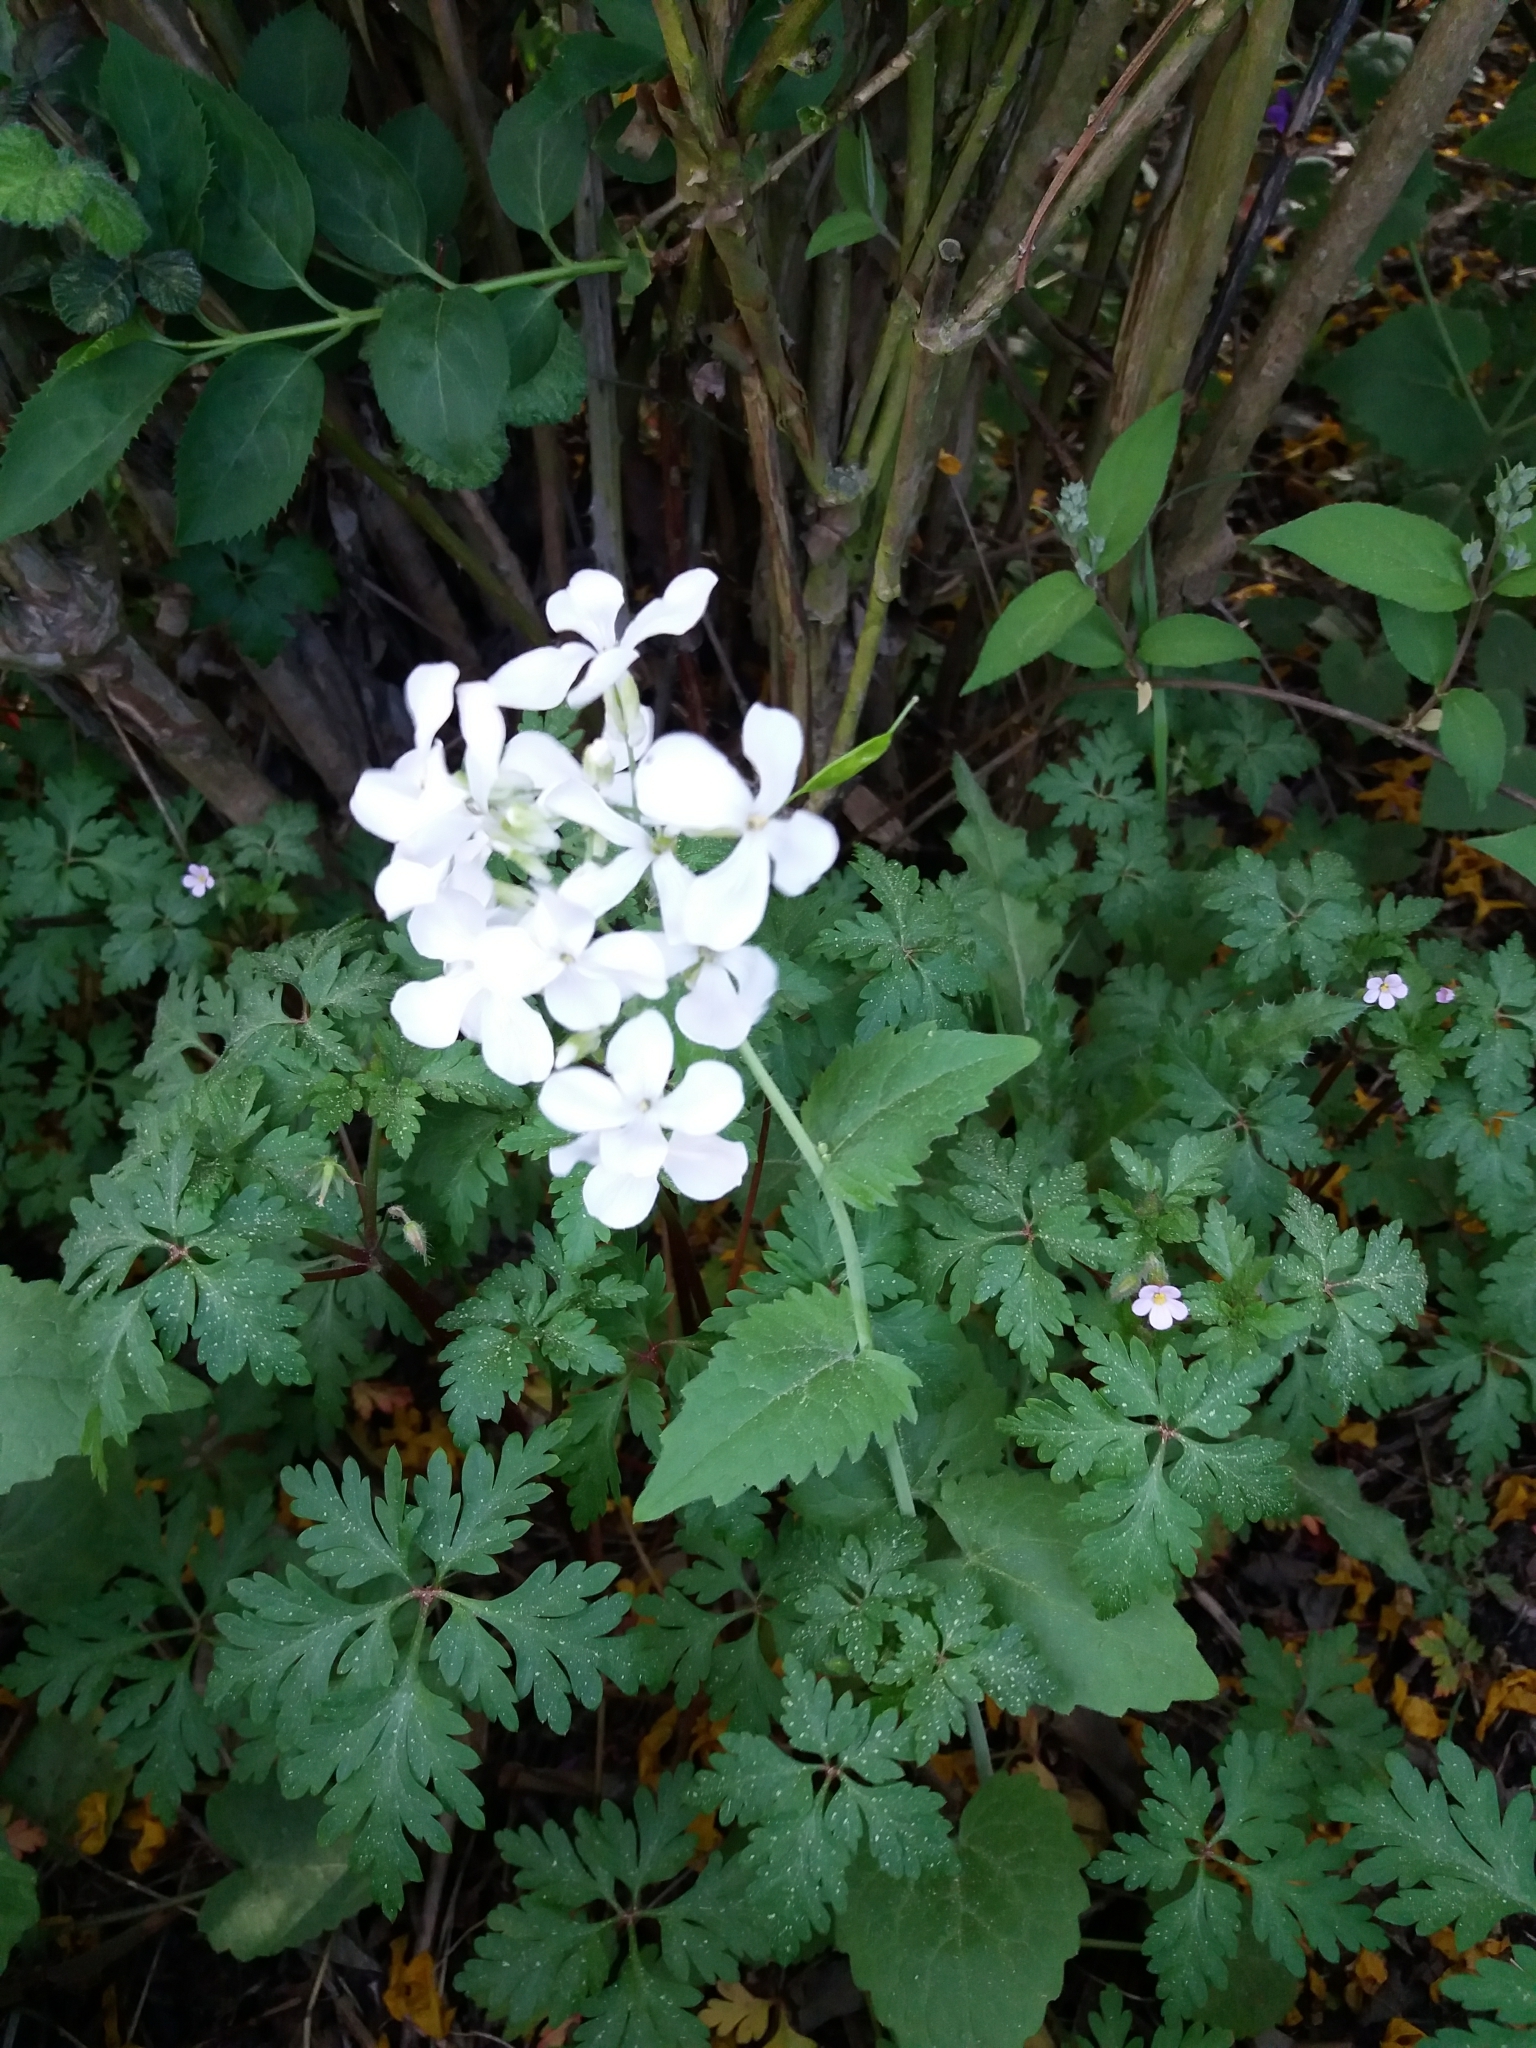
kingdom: Plantae
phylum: Tracheophyta
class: Magnoliopsida
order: Brassicales
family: Brassicaceae
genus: Lunaria
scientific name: Lunaria annua
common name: Honesty
